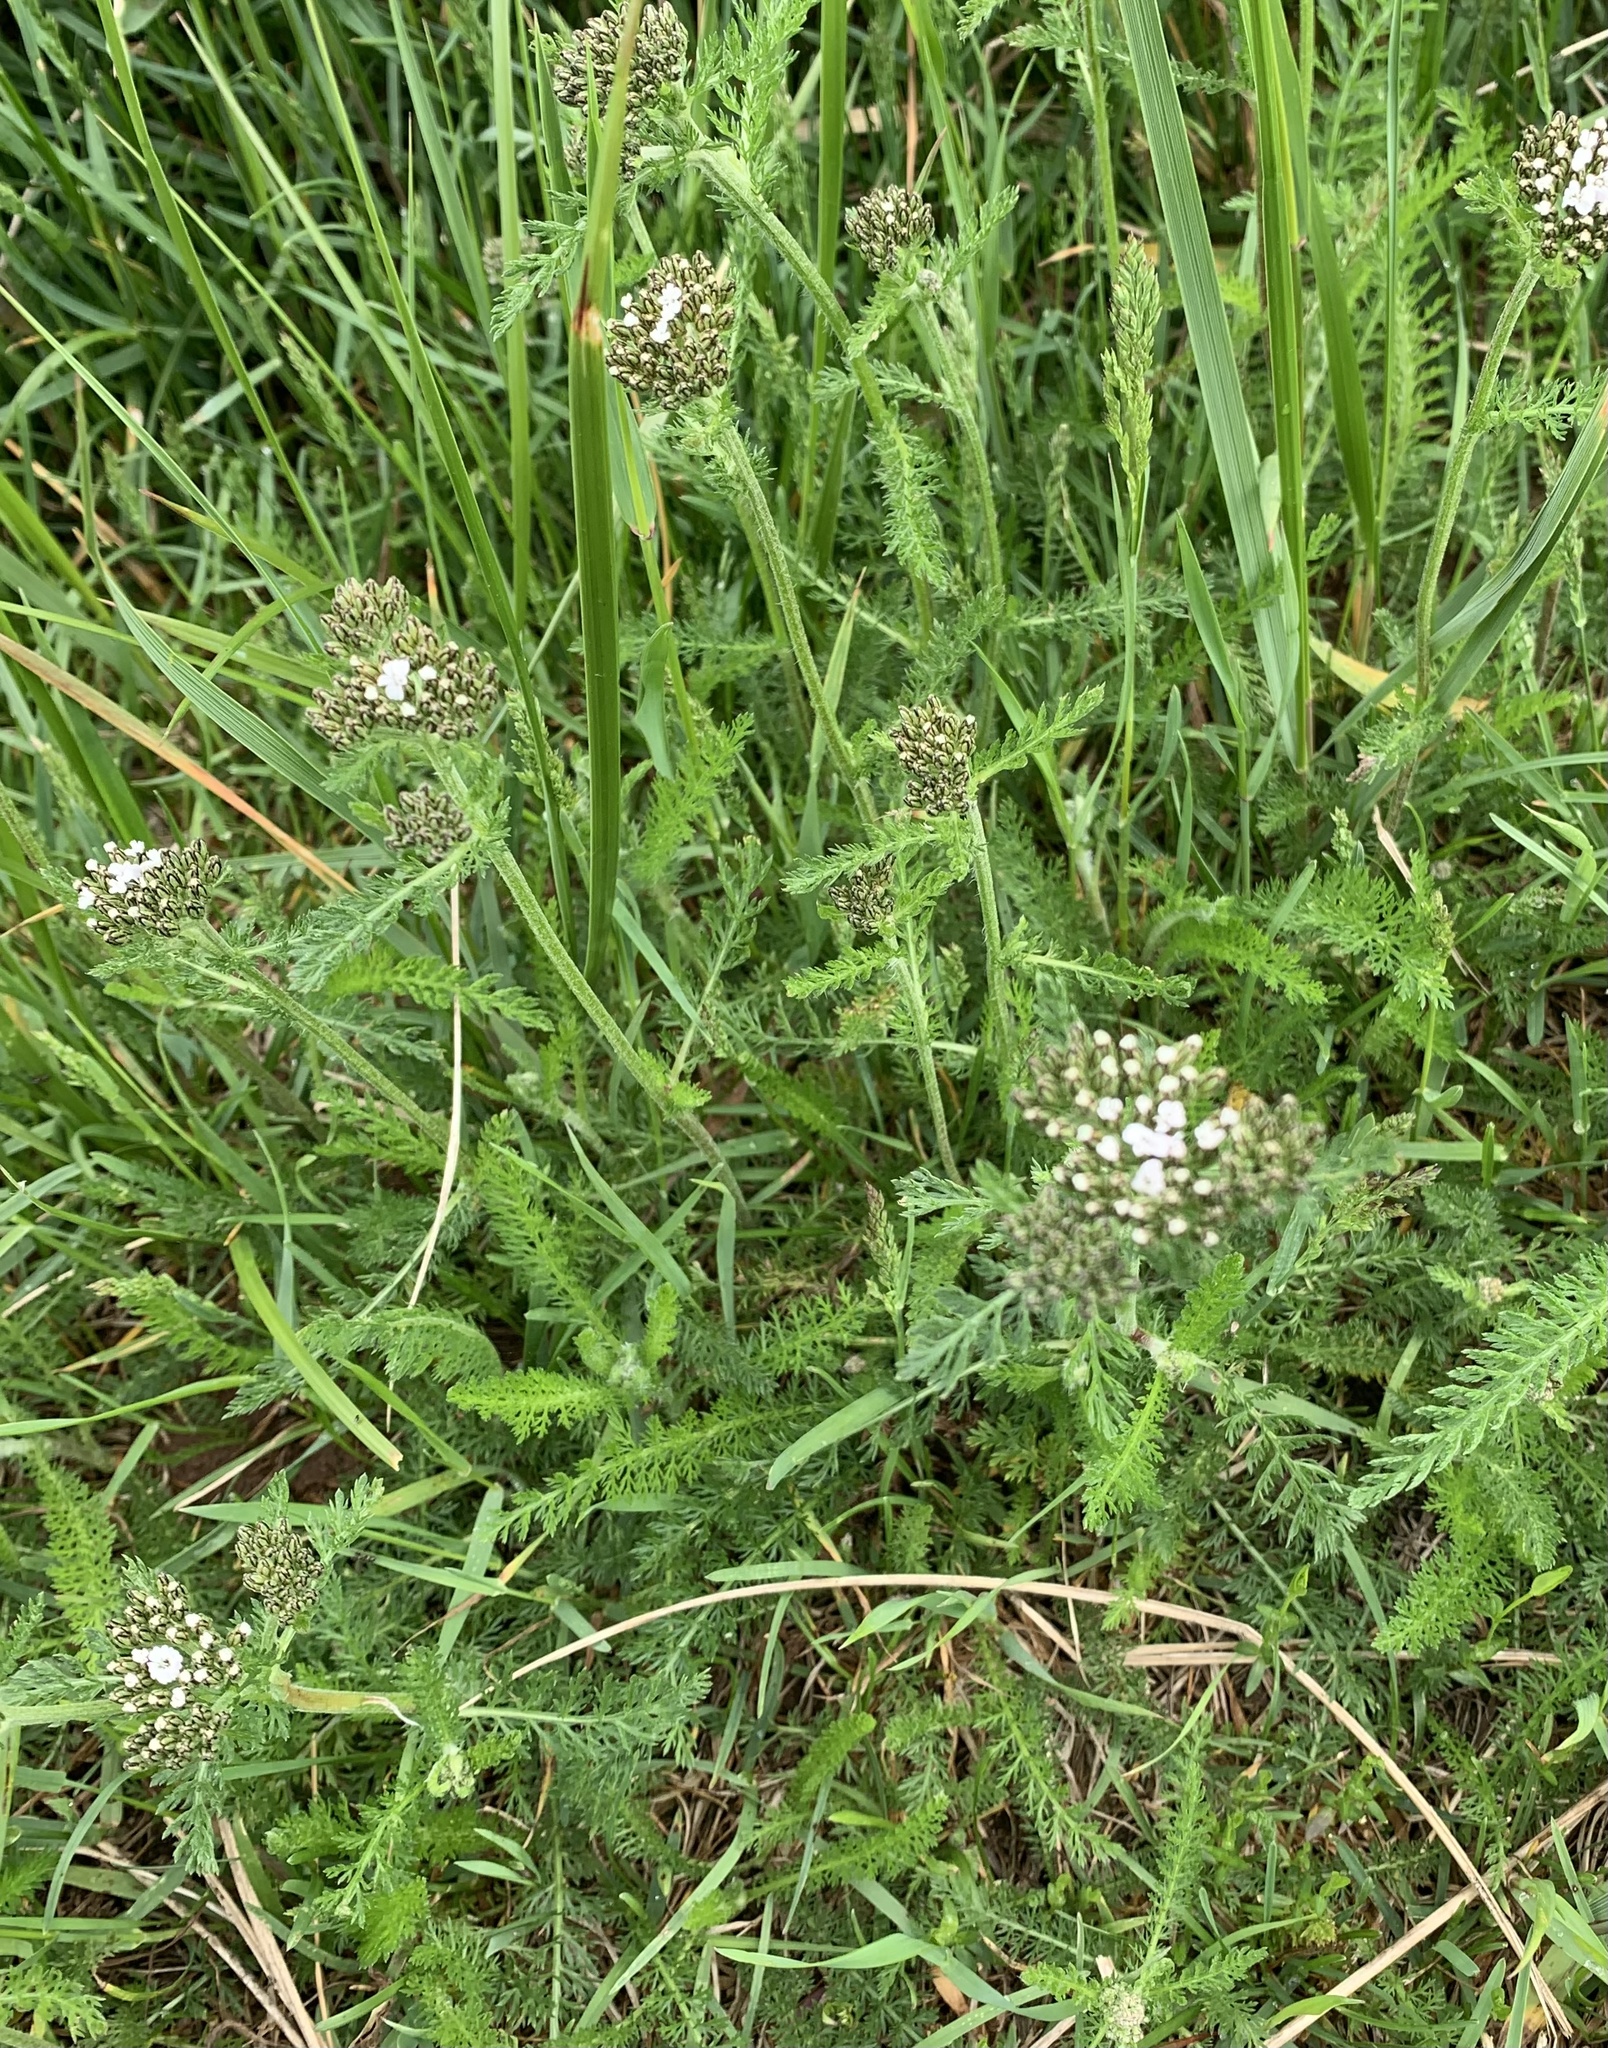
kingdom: Plantae
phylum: Tracheophyta
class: Magnoliopsida
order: Asterales
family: Asteraceae
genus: Achillea
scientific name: Achillea millefolium
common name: Yarrow
